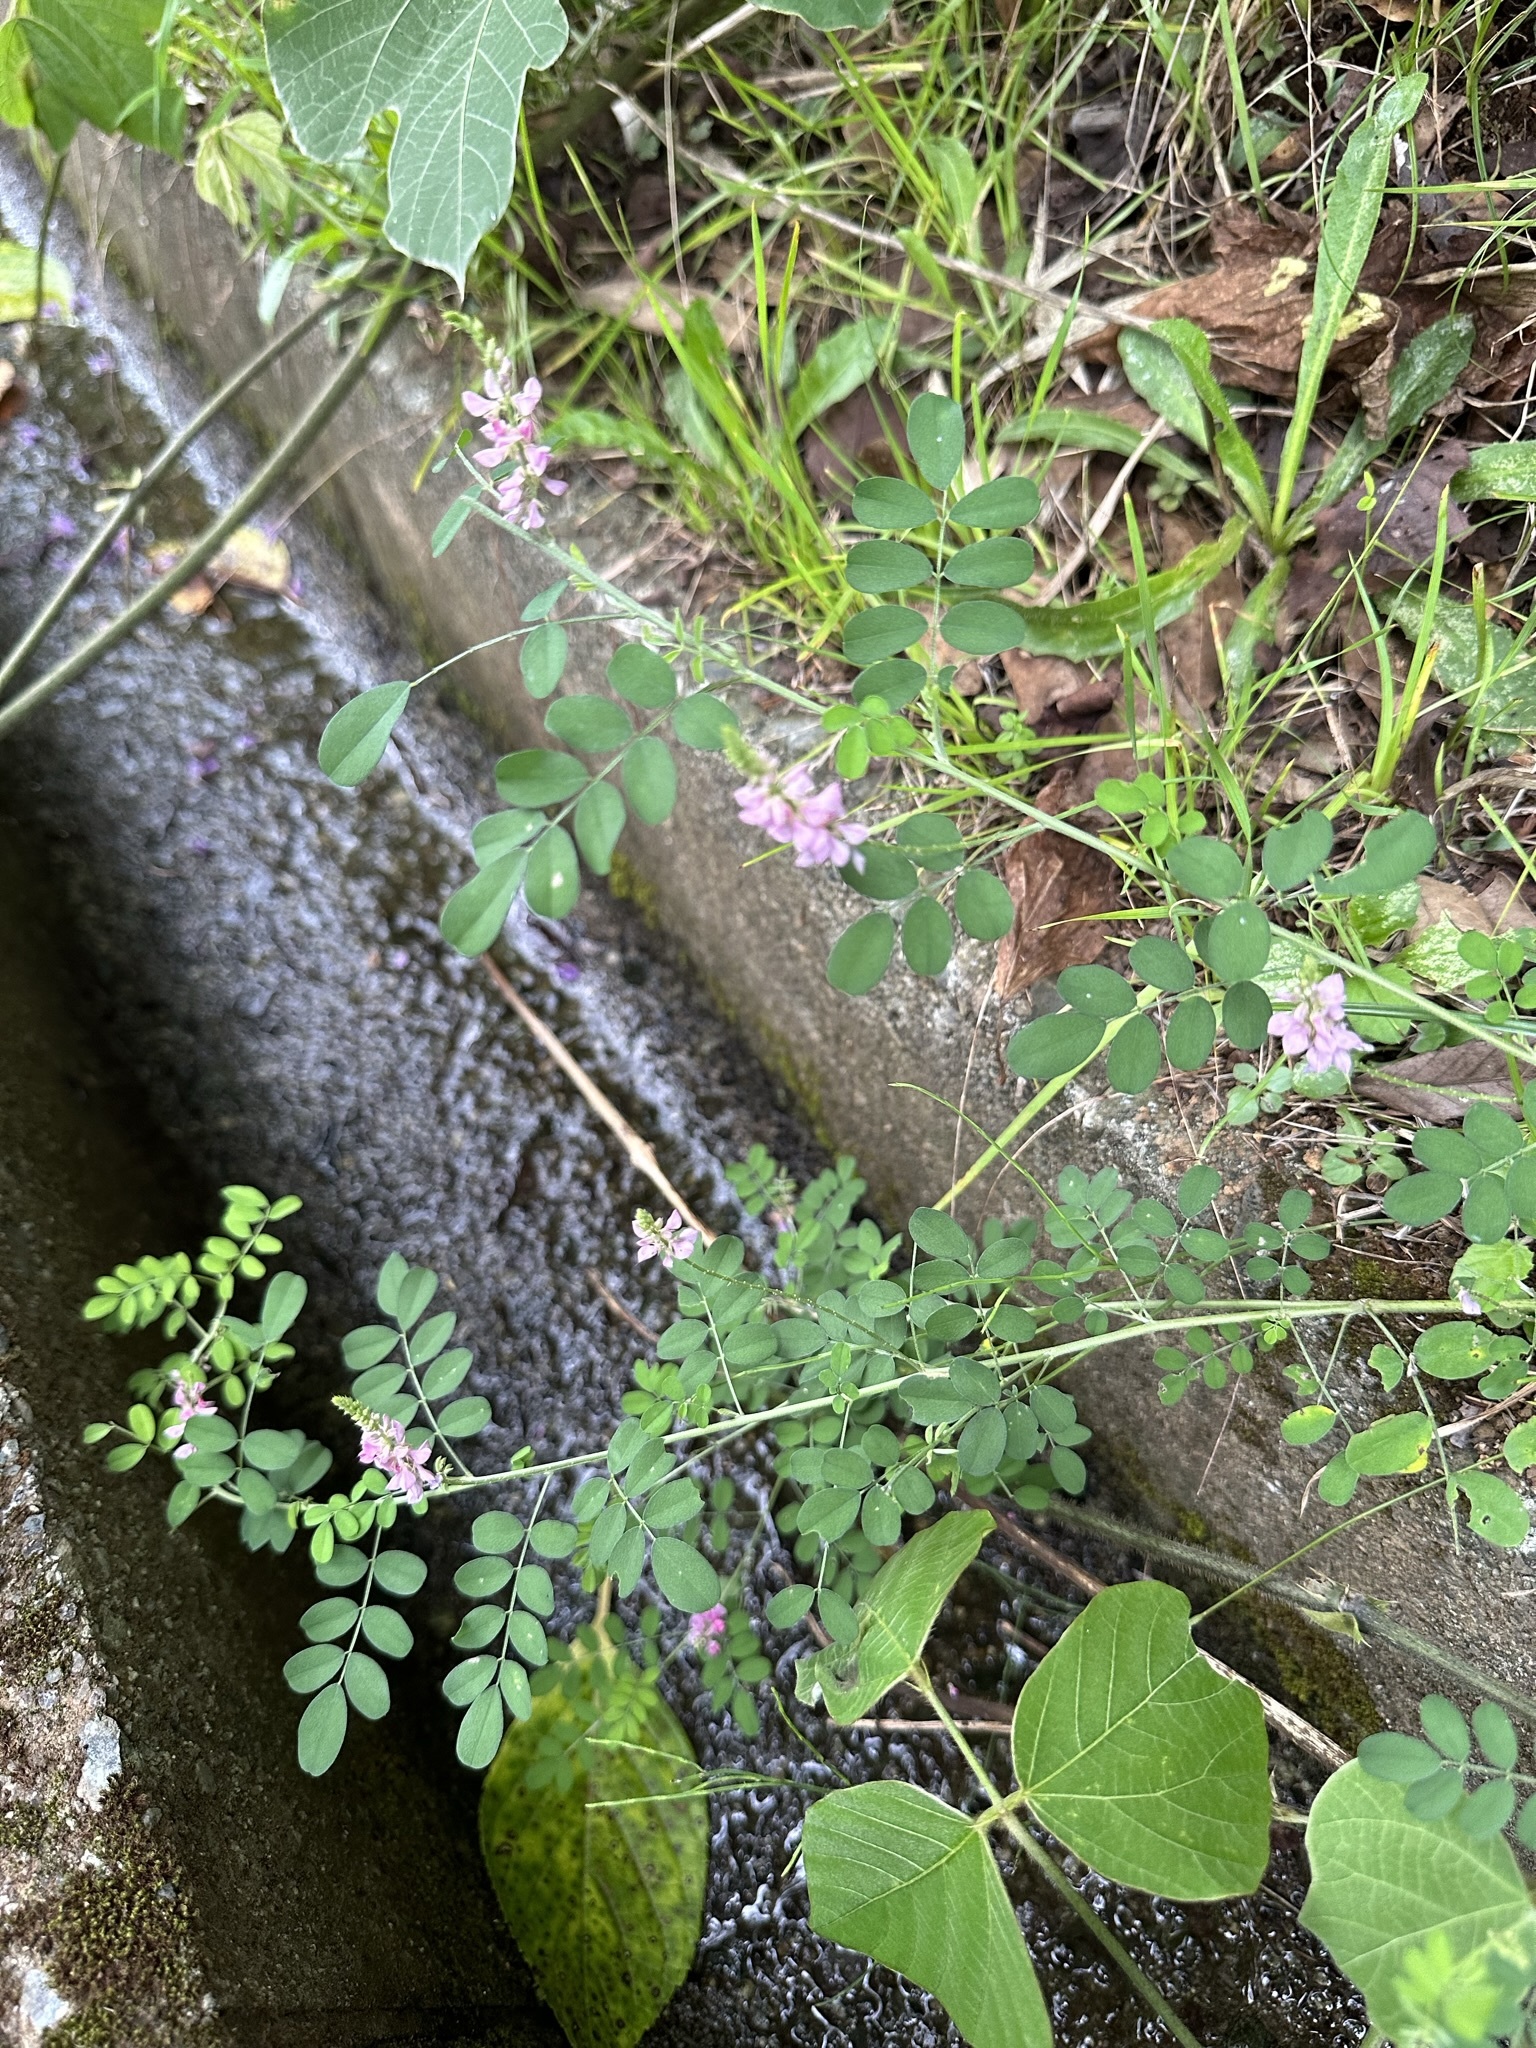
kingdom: Plantae
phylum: Tracheophyta
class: Magnoliopsida
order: Fabales
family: Fabaceae
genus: Indigofera
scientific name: Indigofera bungeana
